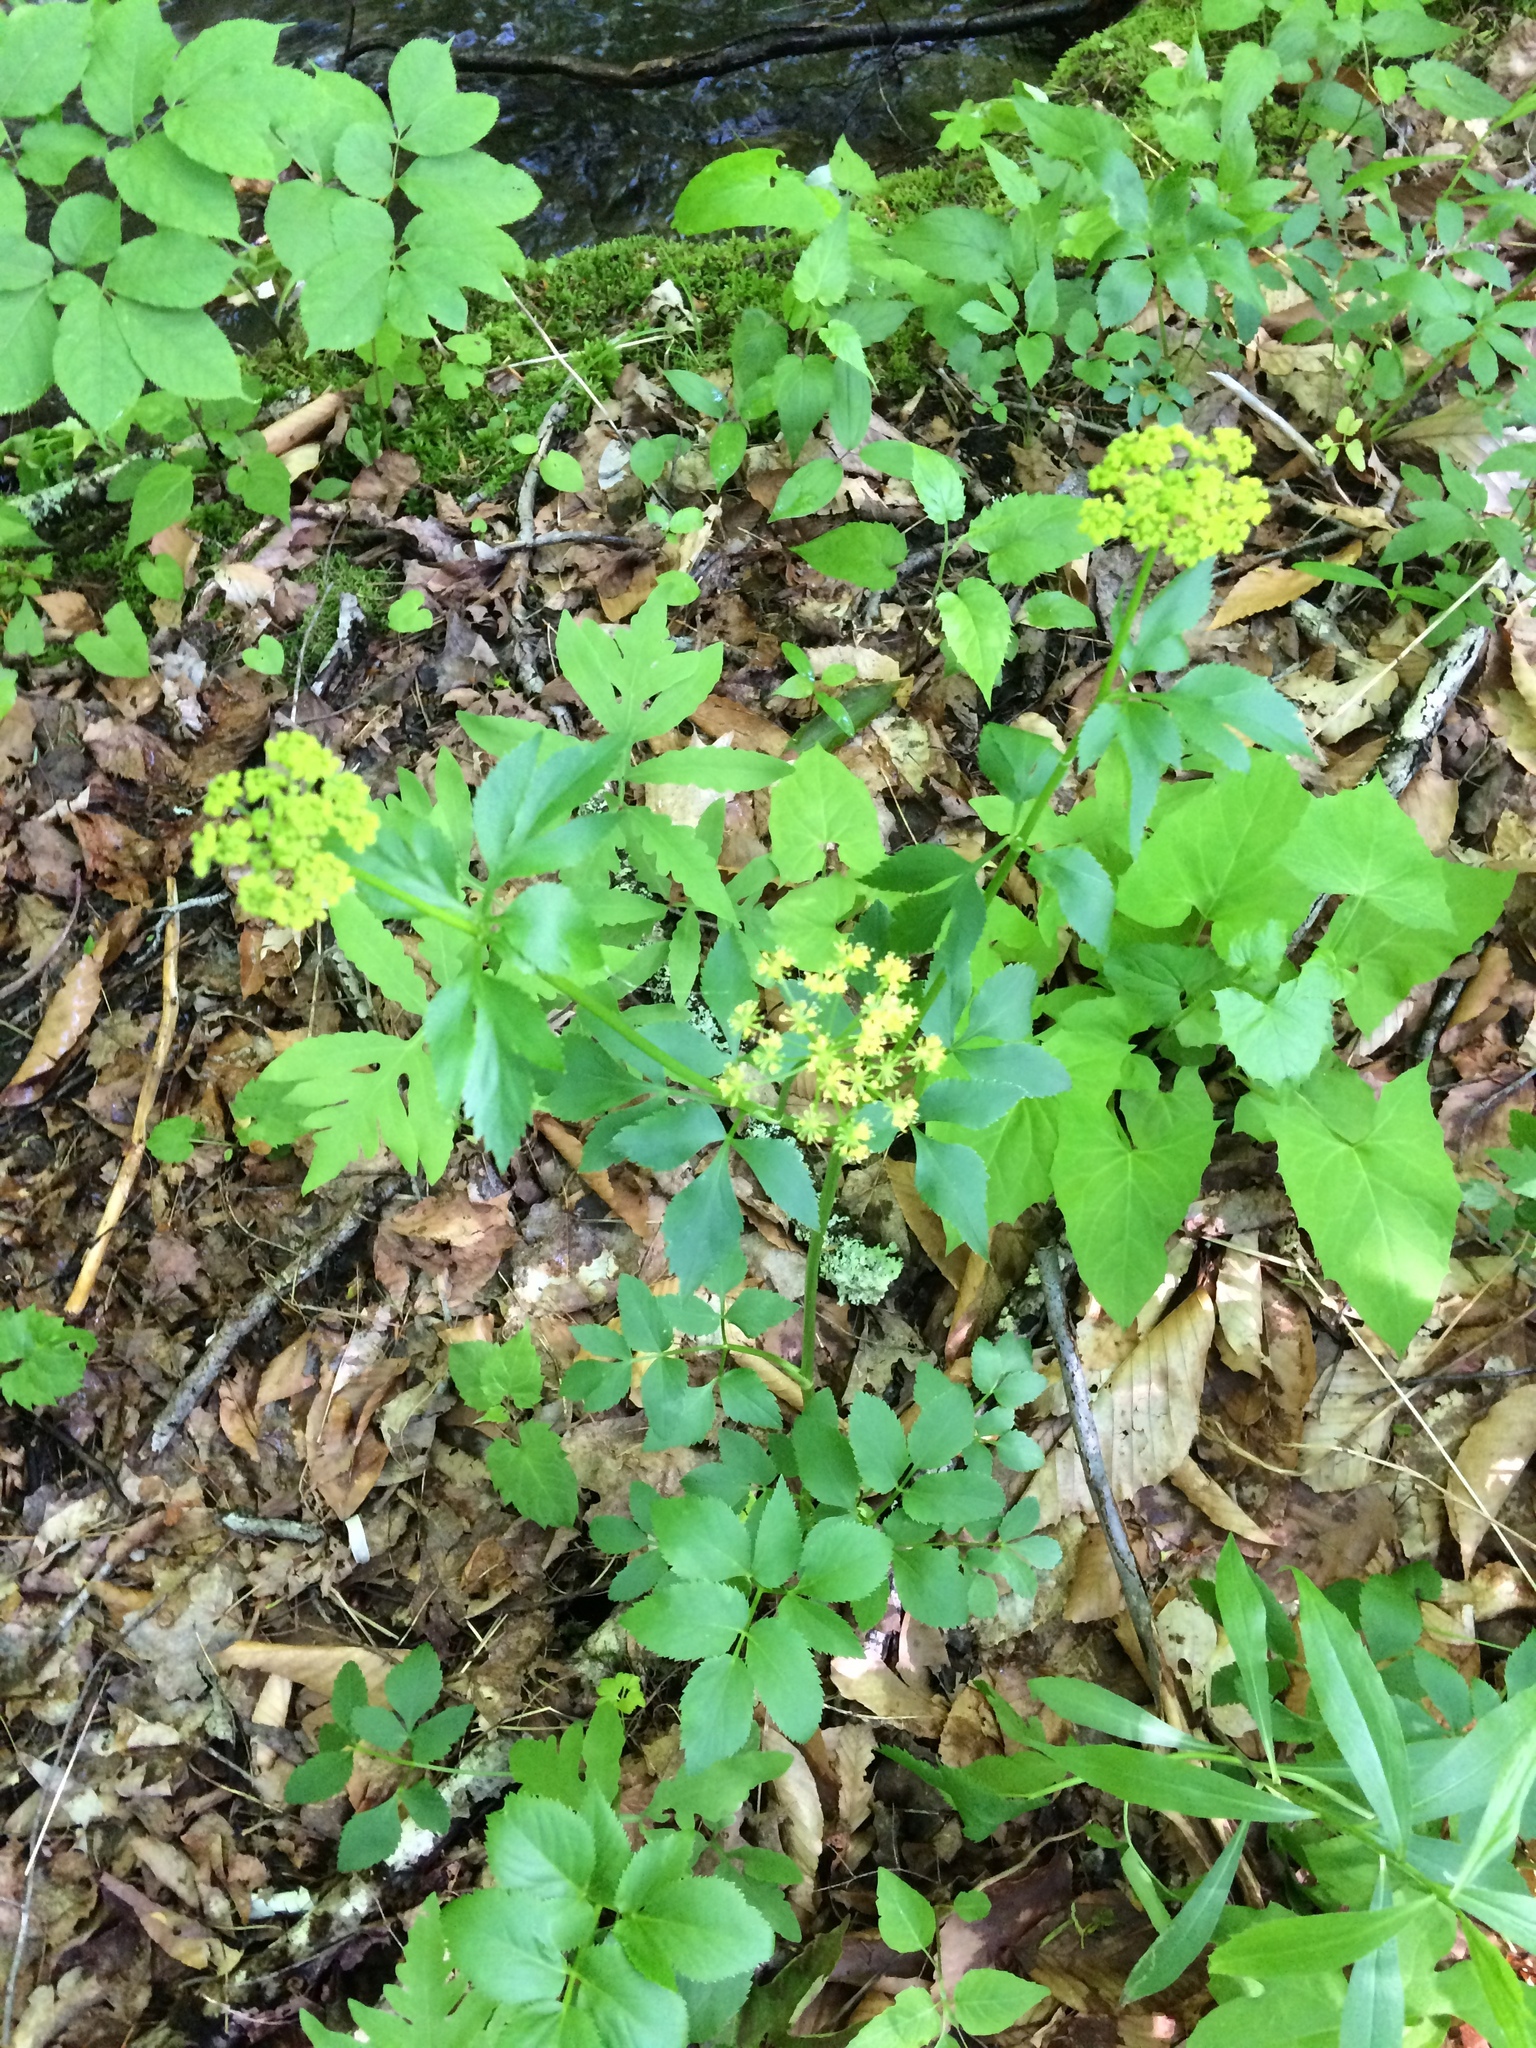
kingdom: Plantae
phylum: Tracheophyta
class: Magnoliopsida
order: Apiales
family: Apiaceae
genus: Zizia
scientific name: Zizia aurea
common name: Golden alexanders
